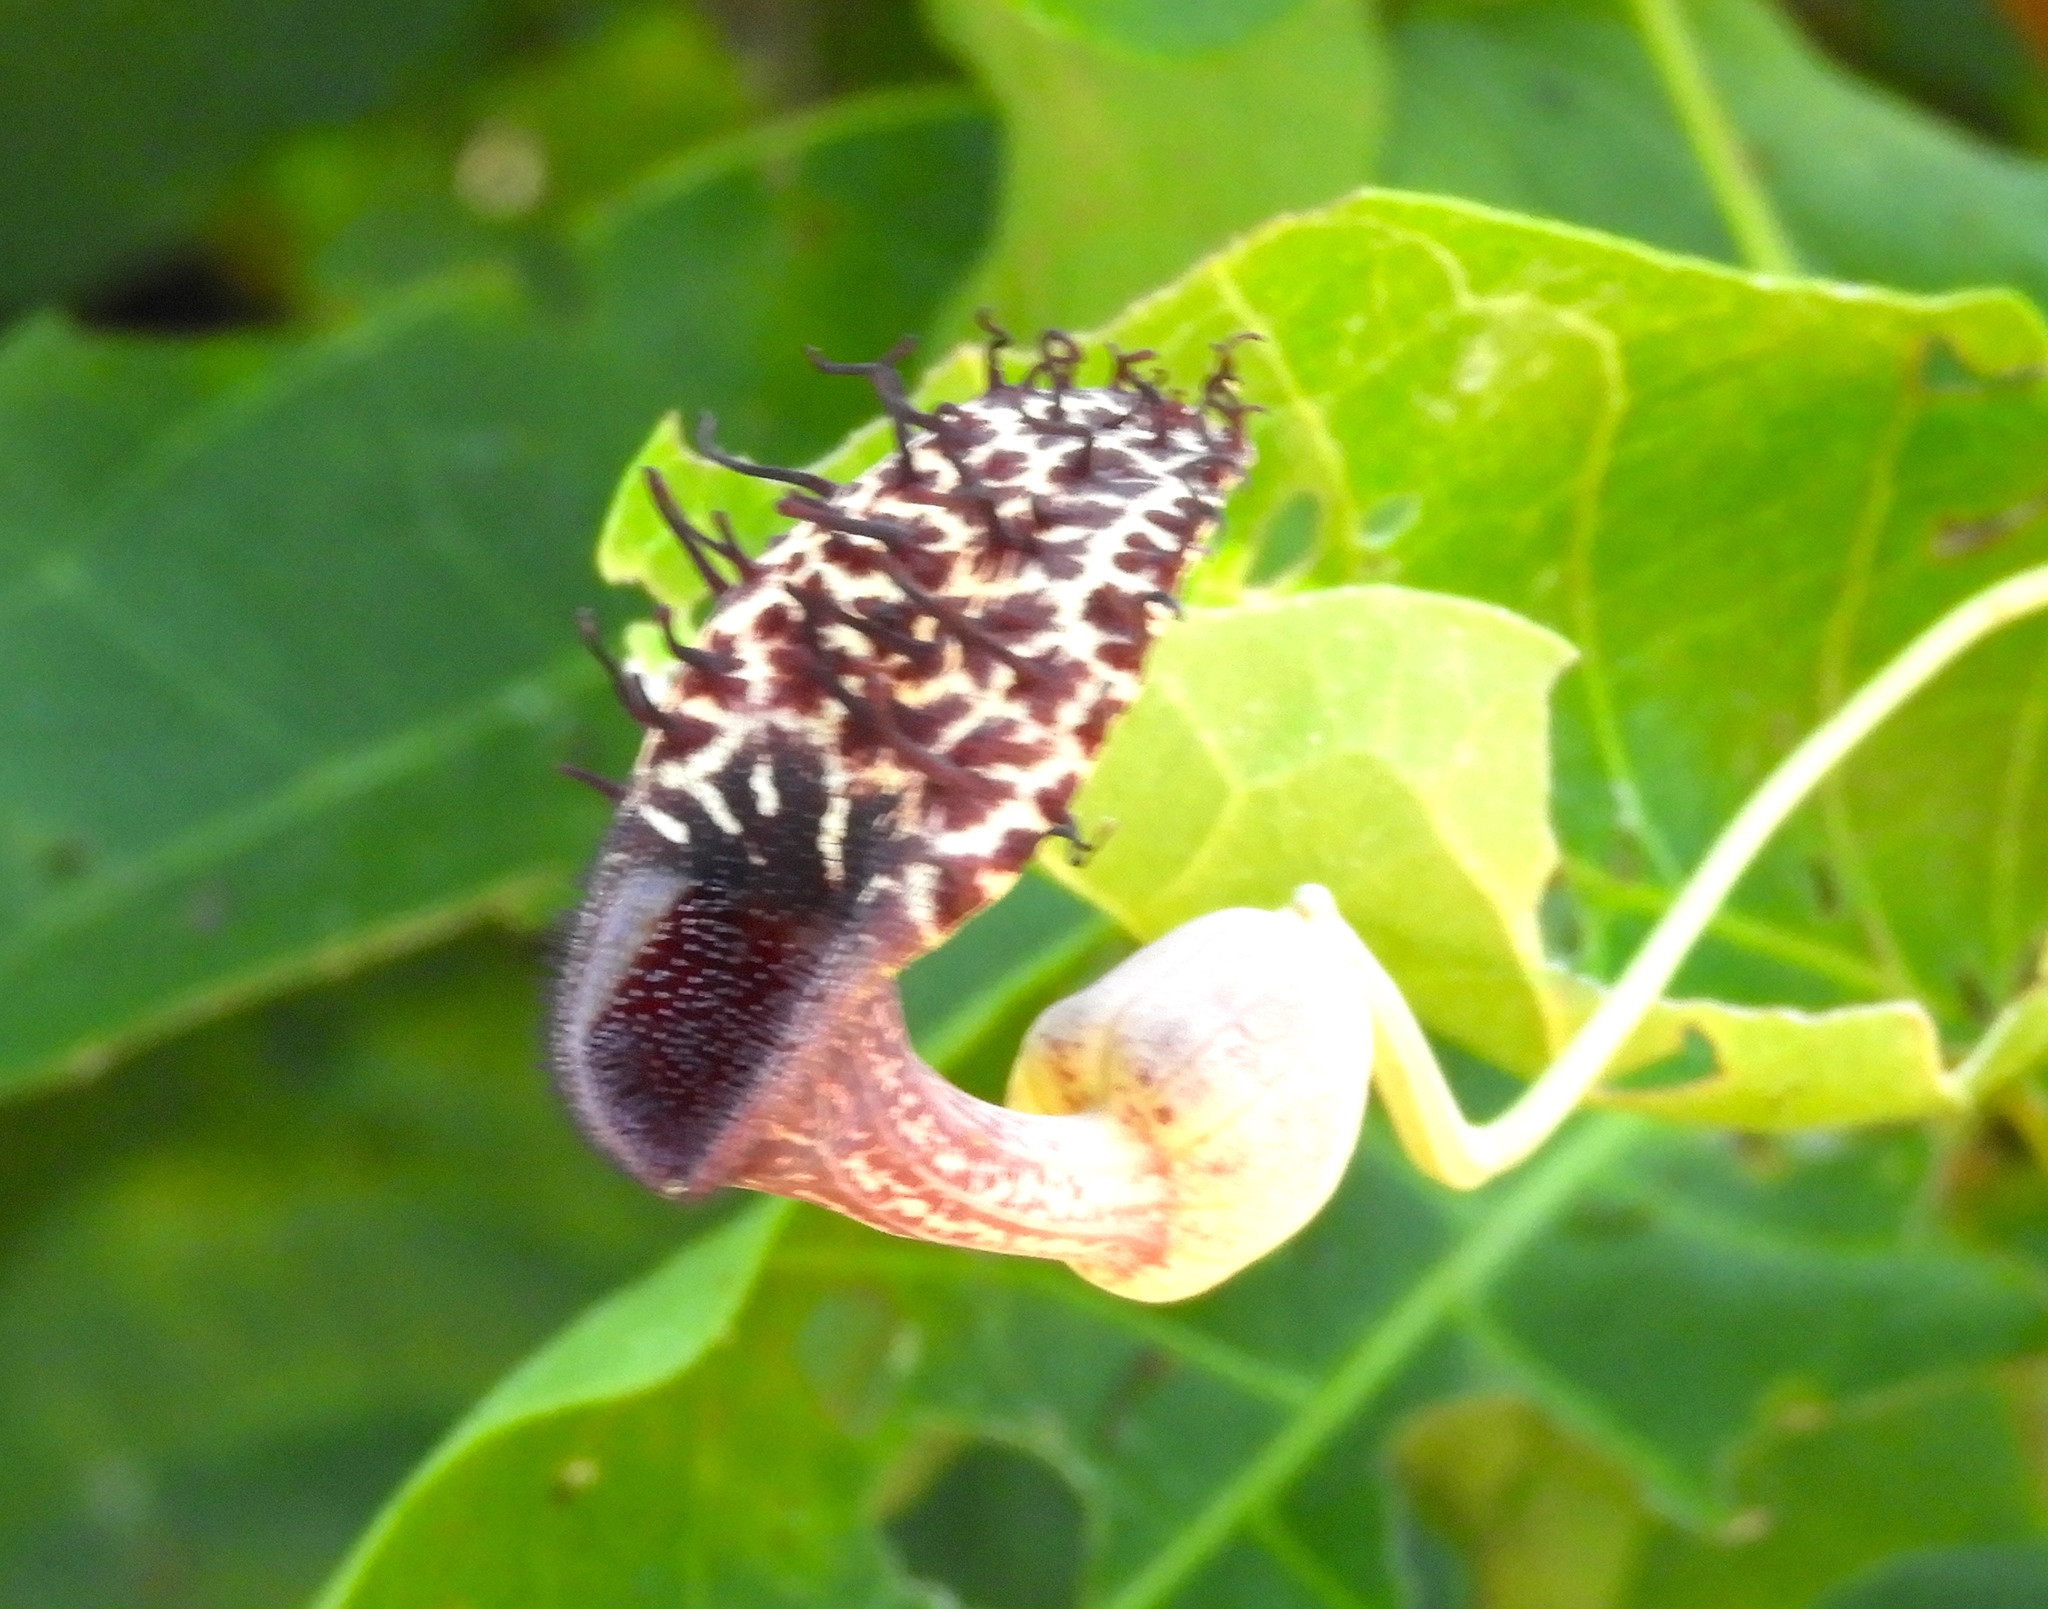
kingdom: Plantae
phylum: Tracheophyta
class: Magnoliopsida
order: Piperales
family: Aristolochiaceae
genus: Aristolochia
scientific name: Aristolochia taliscana
